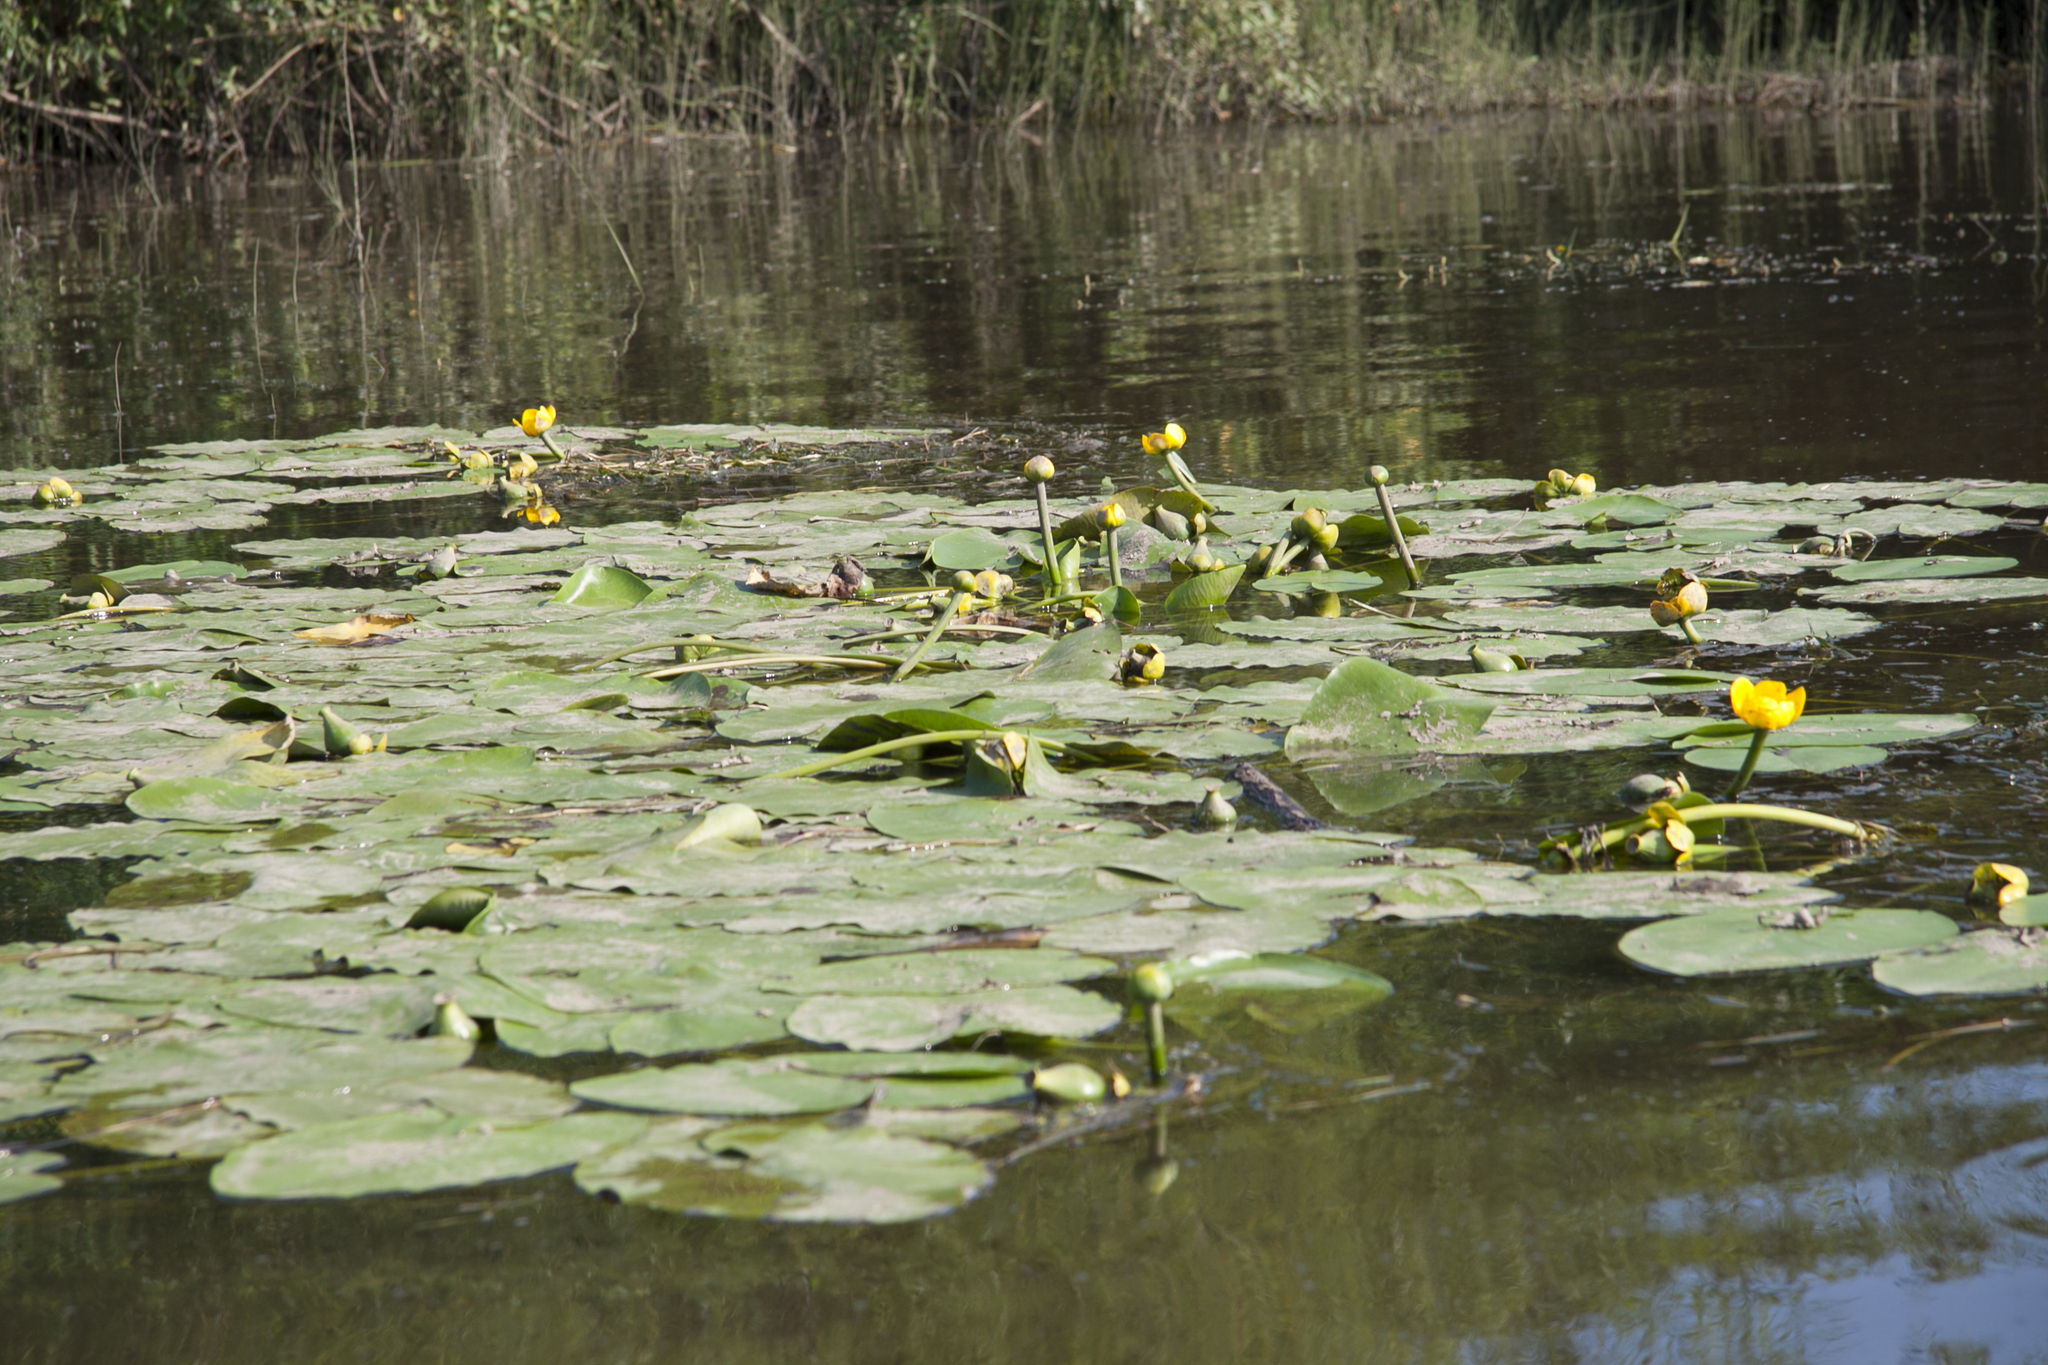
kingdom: Plantae
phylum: Tracheophyta
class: Magnoliopsida
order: Nymphaeales
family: Nymphaeaceae
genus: Nuphar
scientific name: Nuphar lutea
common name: Yellow water-lily
